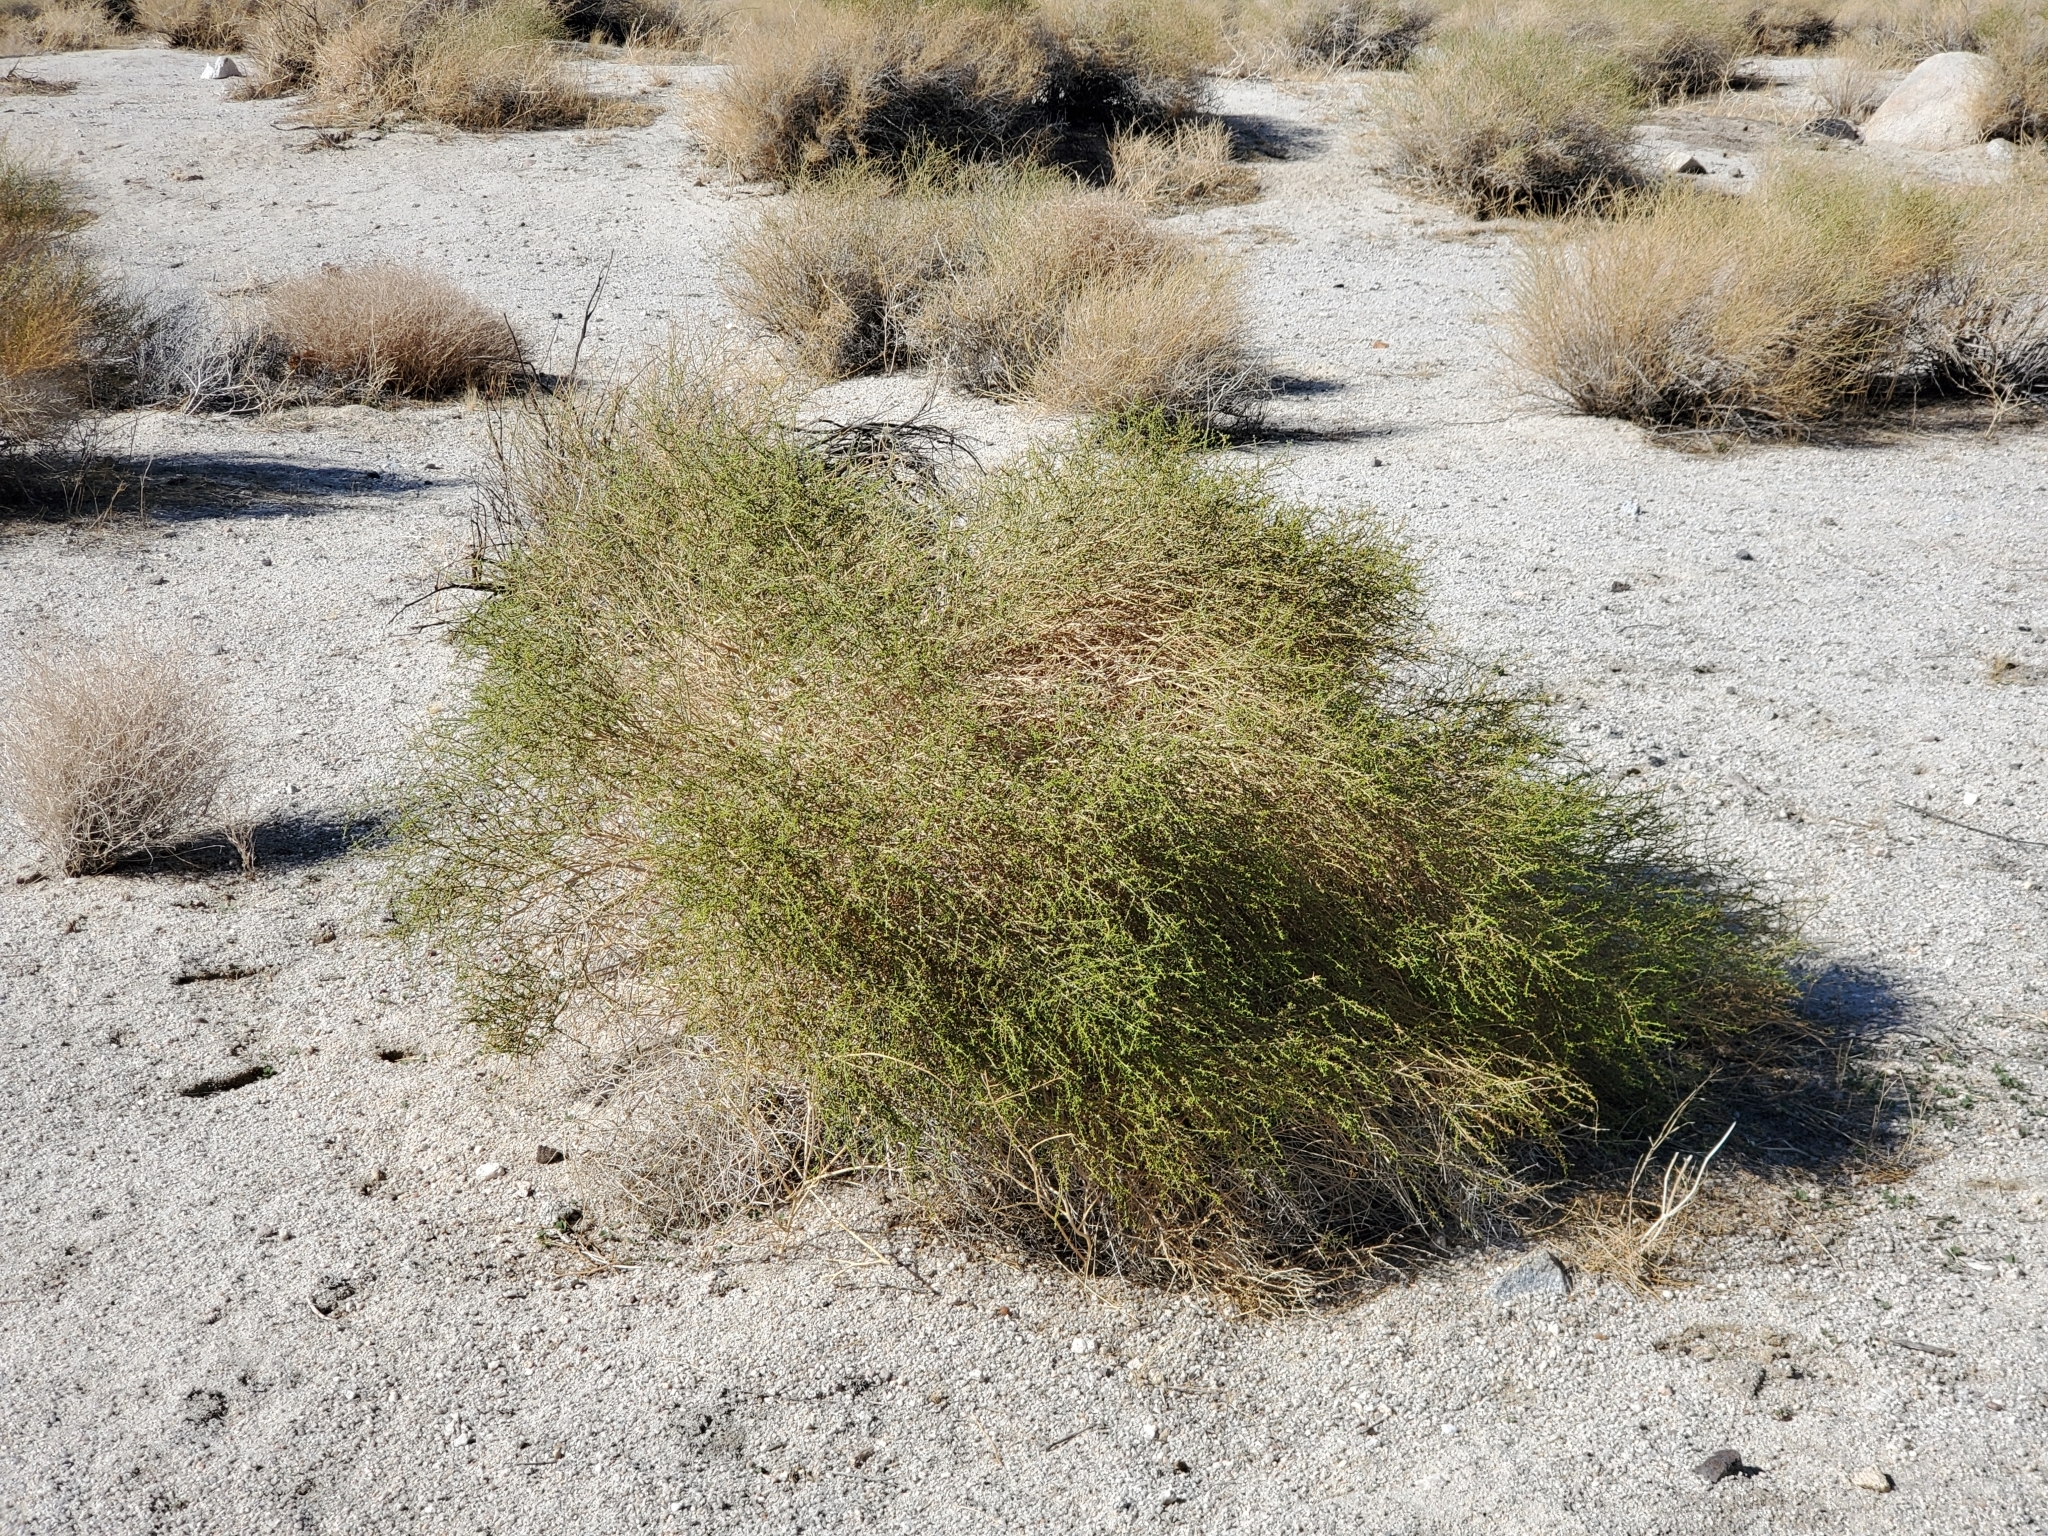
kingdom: Plantae
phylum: Tracheophyta
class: Magnoliopsida
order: Asterales
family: Asteraceae
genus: Ambrosia
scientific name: Ambrosia salsola
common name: Burrobrush
